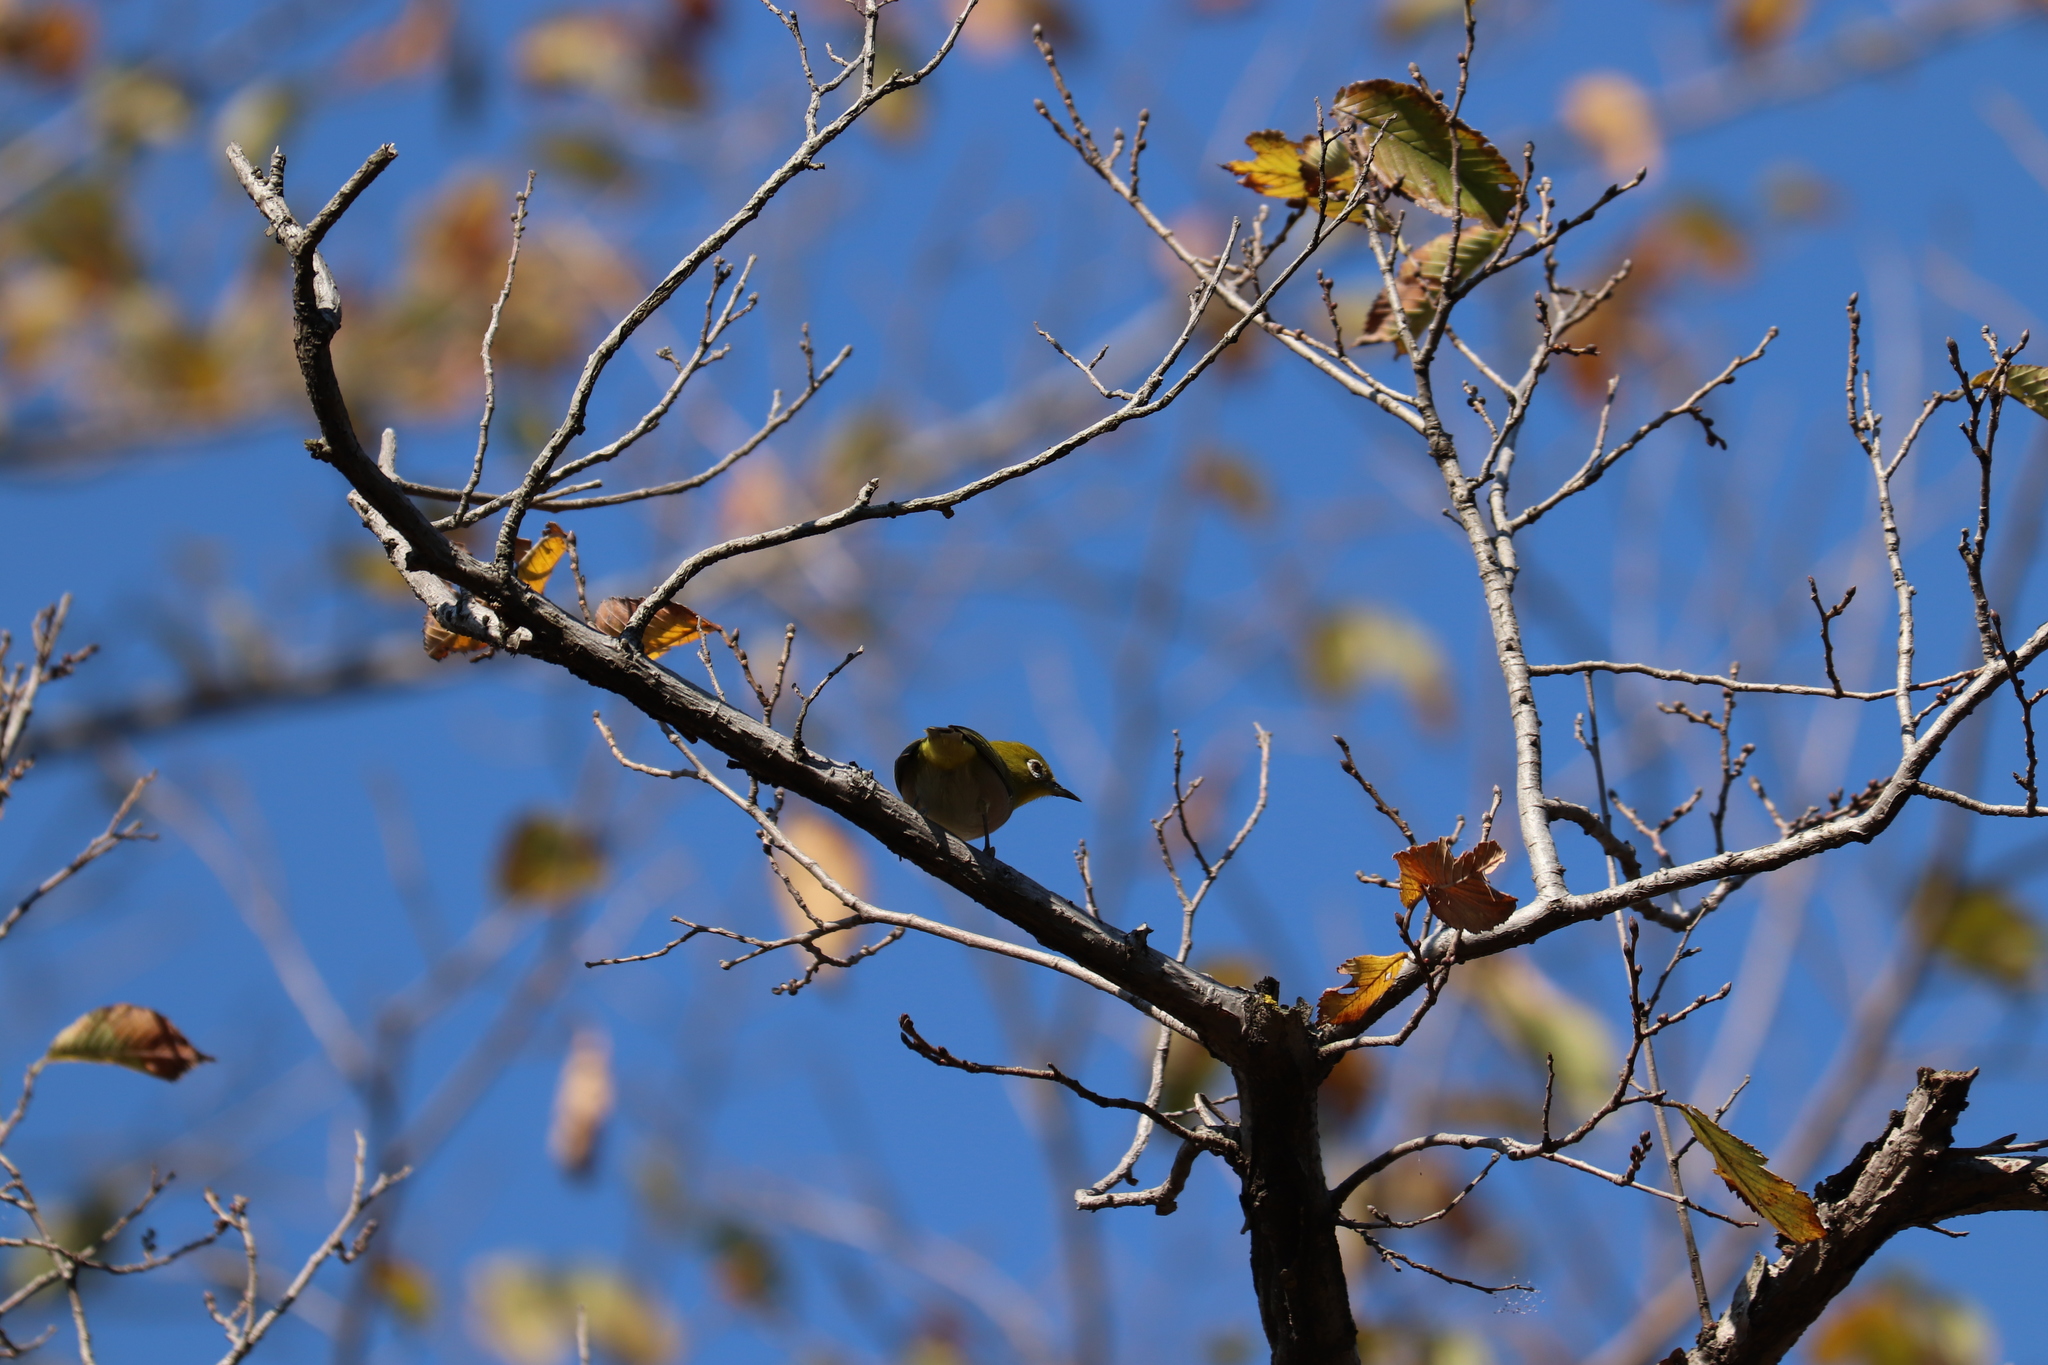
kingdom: Animalia
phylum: Chordata
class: Aves
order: Passeriformes
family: Zosteropidae
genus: Zosterops
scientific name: Zosterops japonicus
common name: Japanese white-eye
